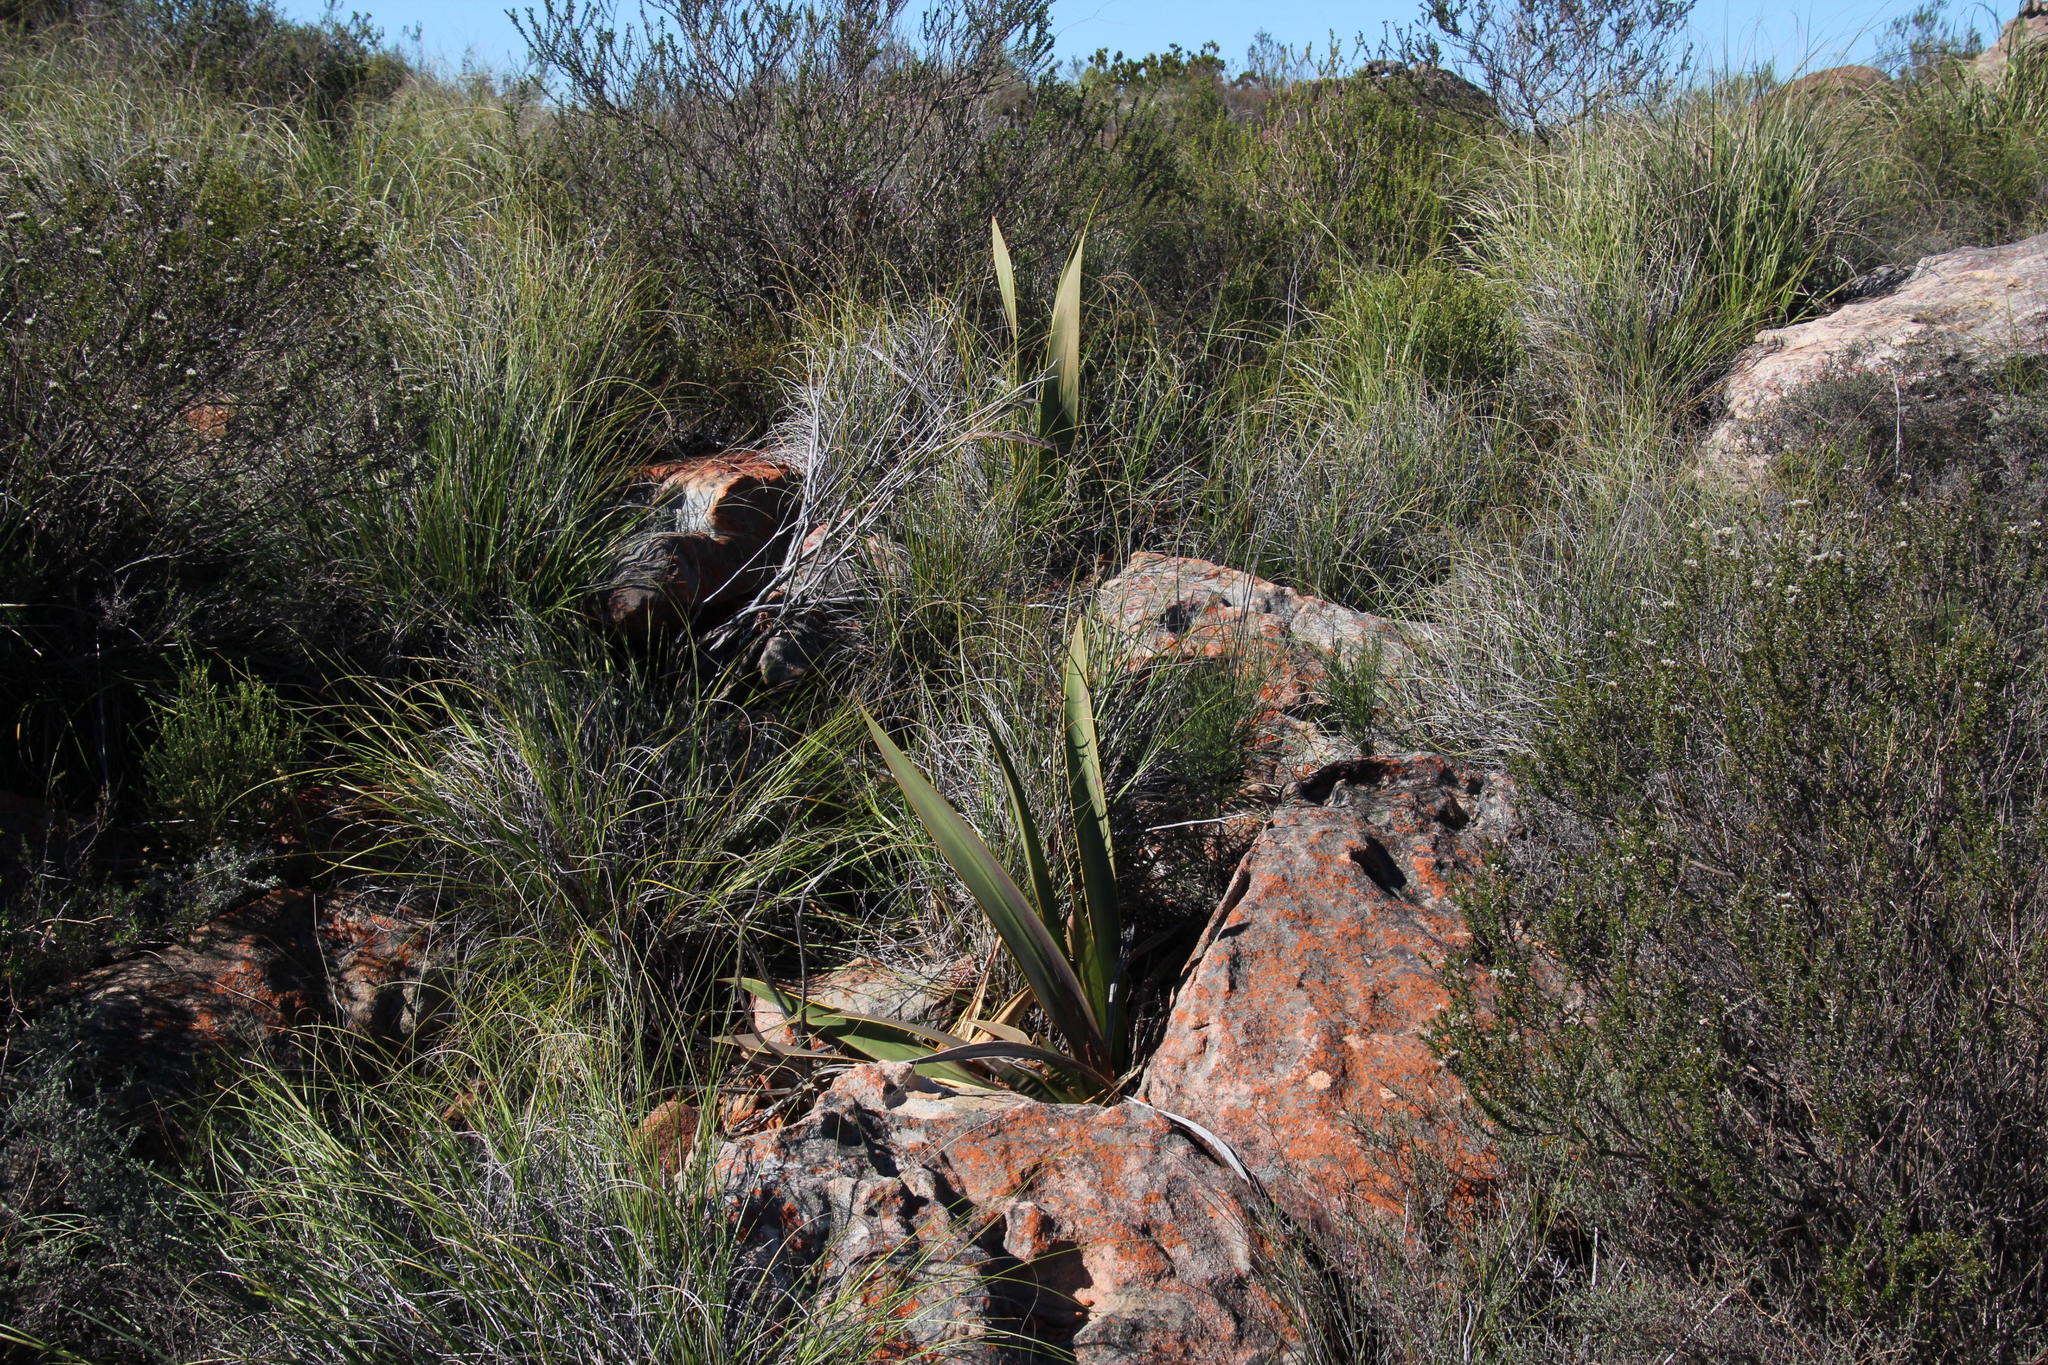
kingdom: Plantae
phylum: Tracheophyta
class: Liliopsida
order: Asparagales
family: Iridaceae
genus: Watsonia
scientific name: Watsonia vanderspuyae
